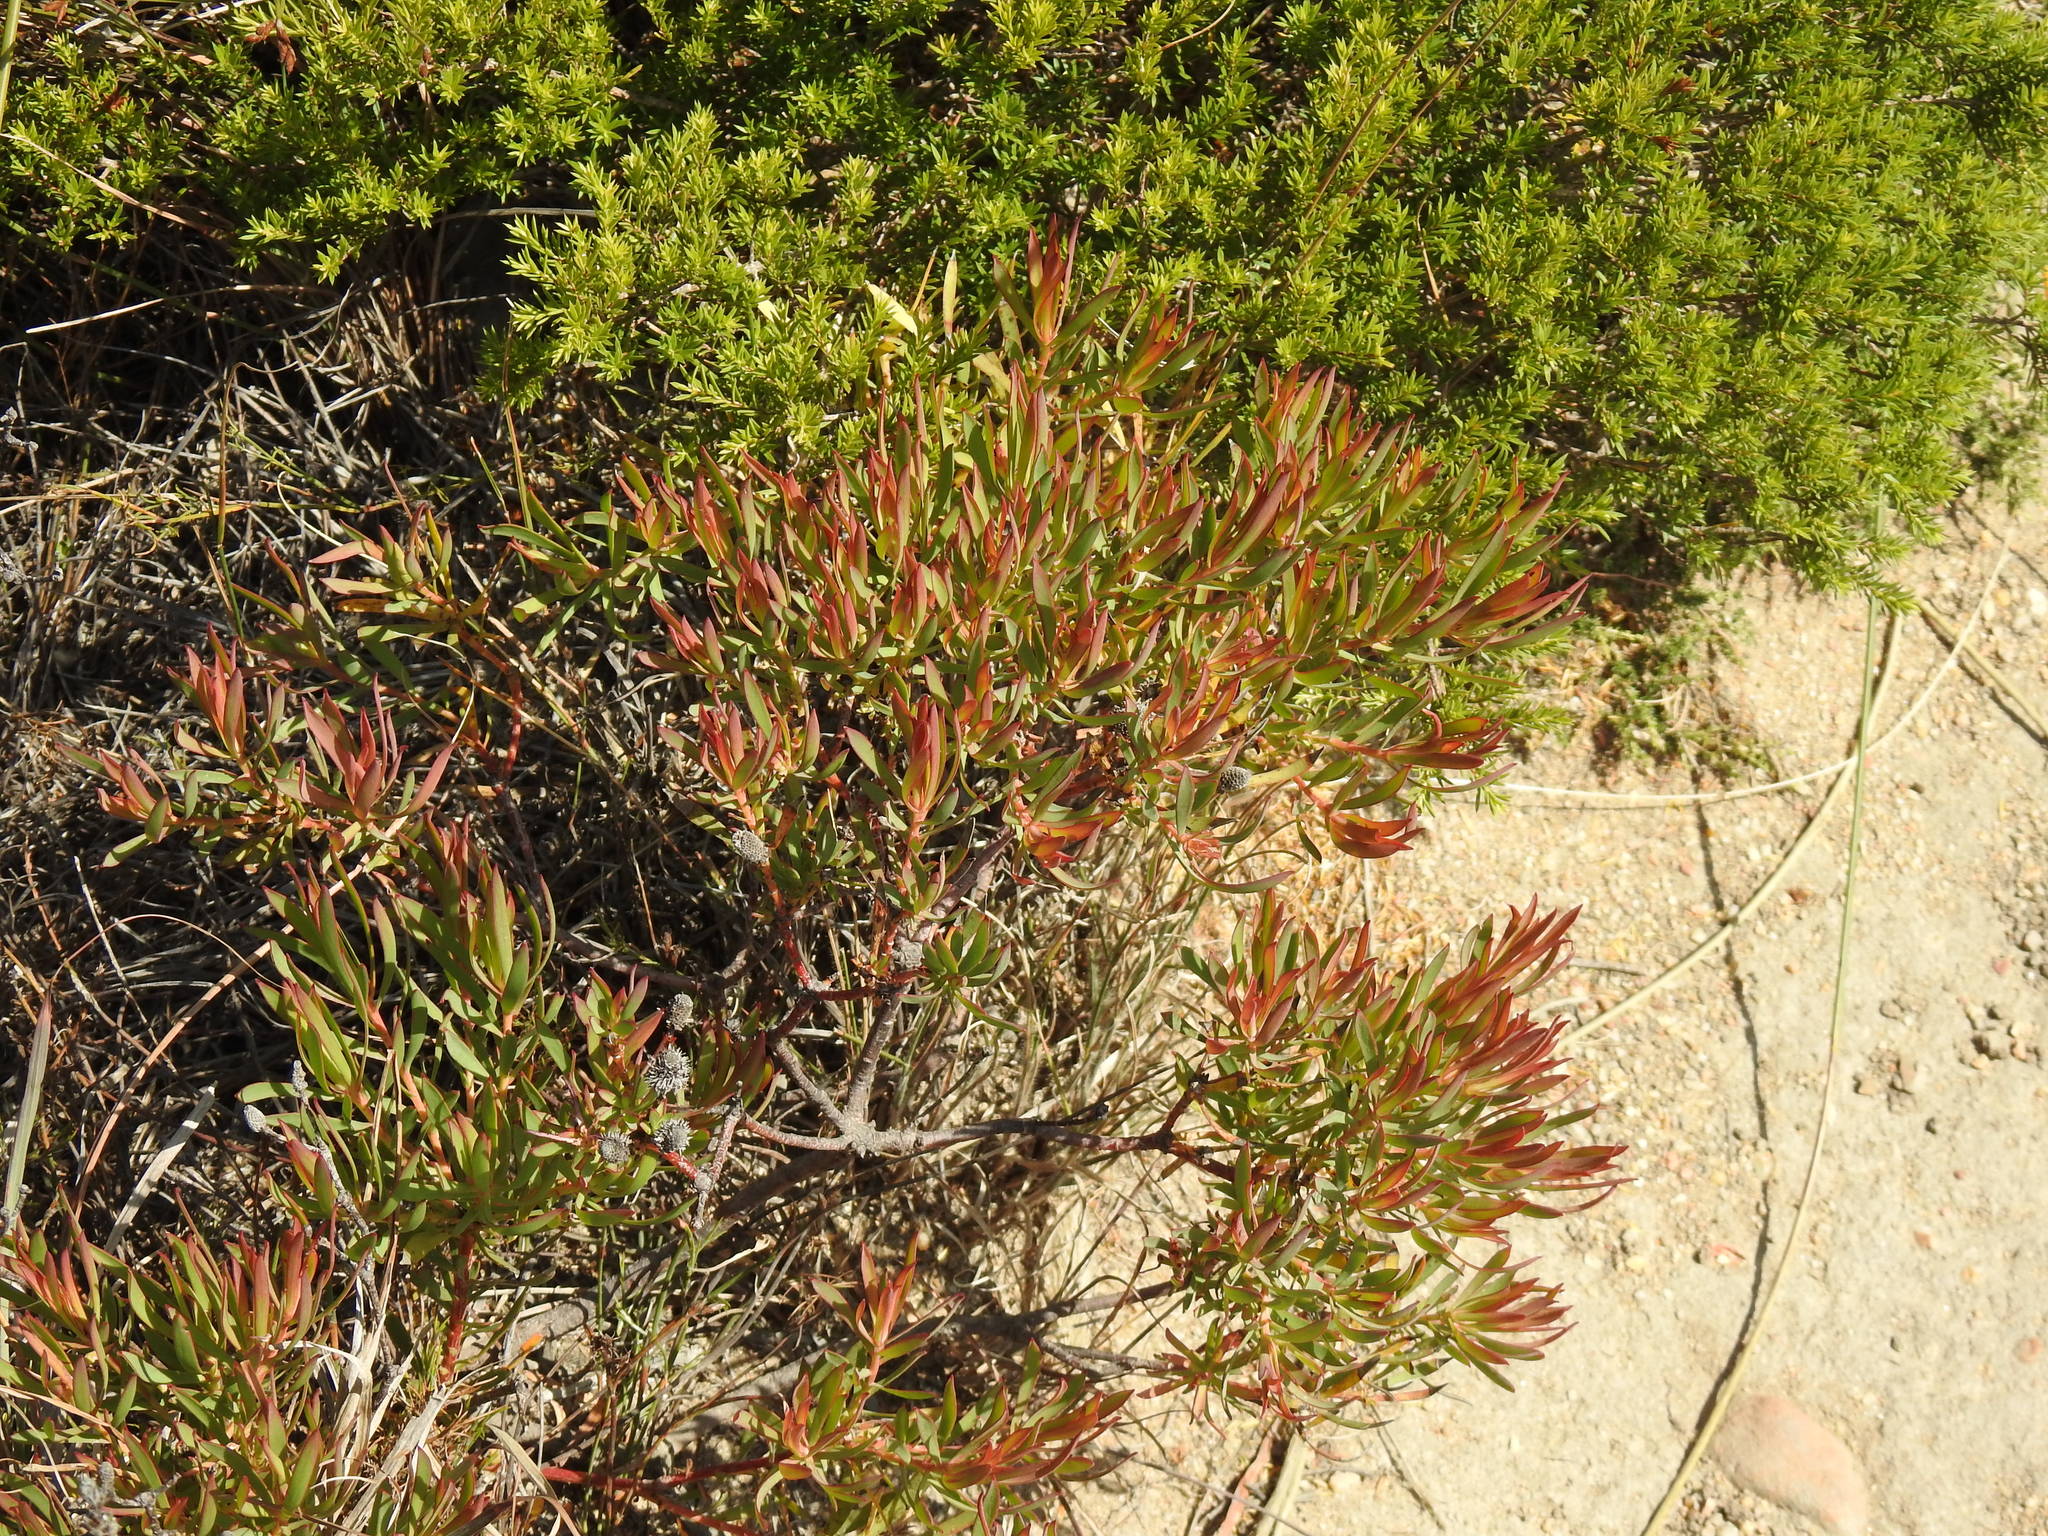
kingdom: Plantae
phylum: Tracheophyta
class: Magnoliopsida
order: Proteales
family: Proteaceae
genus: Leucadendron
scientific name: Leucadendron salignum
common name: Common sunshine conebush
